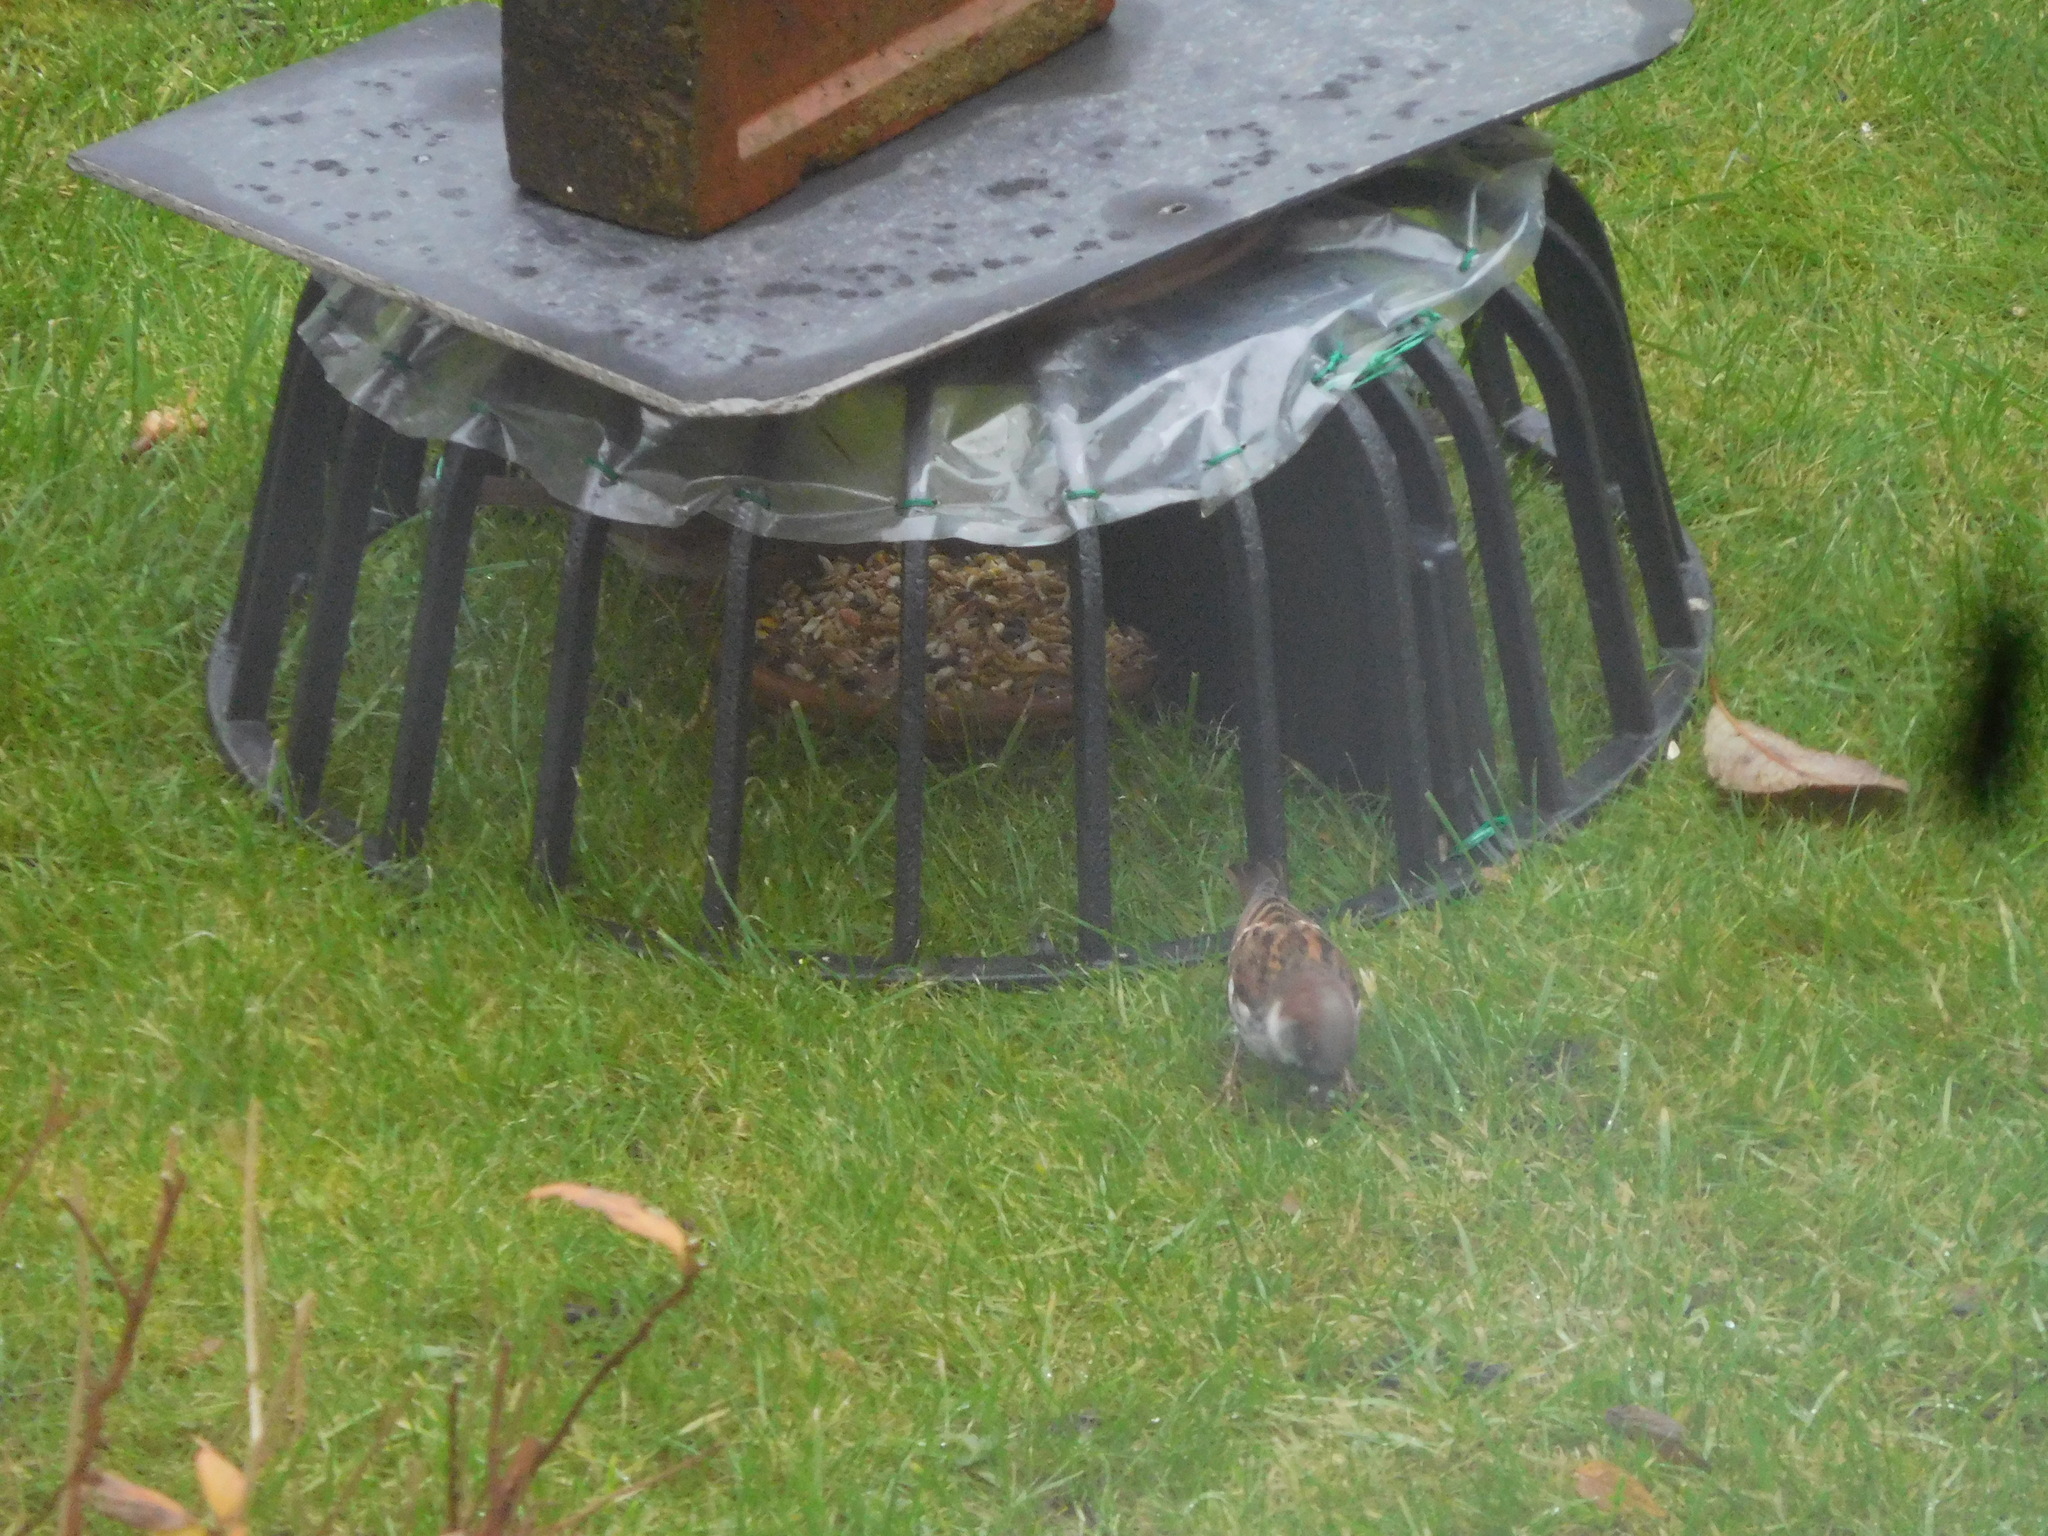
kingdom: Animalia
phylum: Chordata
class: Aves
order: Passeriformes
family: Passeridae
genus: Passer
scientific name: Passer domesticus
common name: House sparrow
